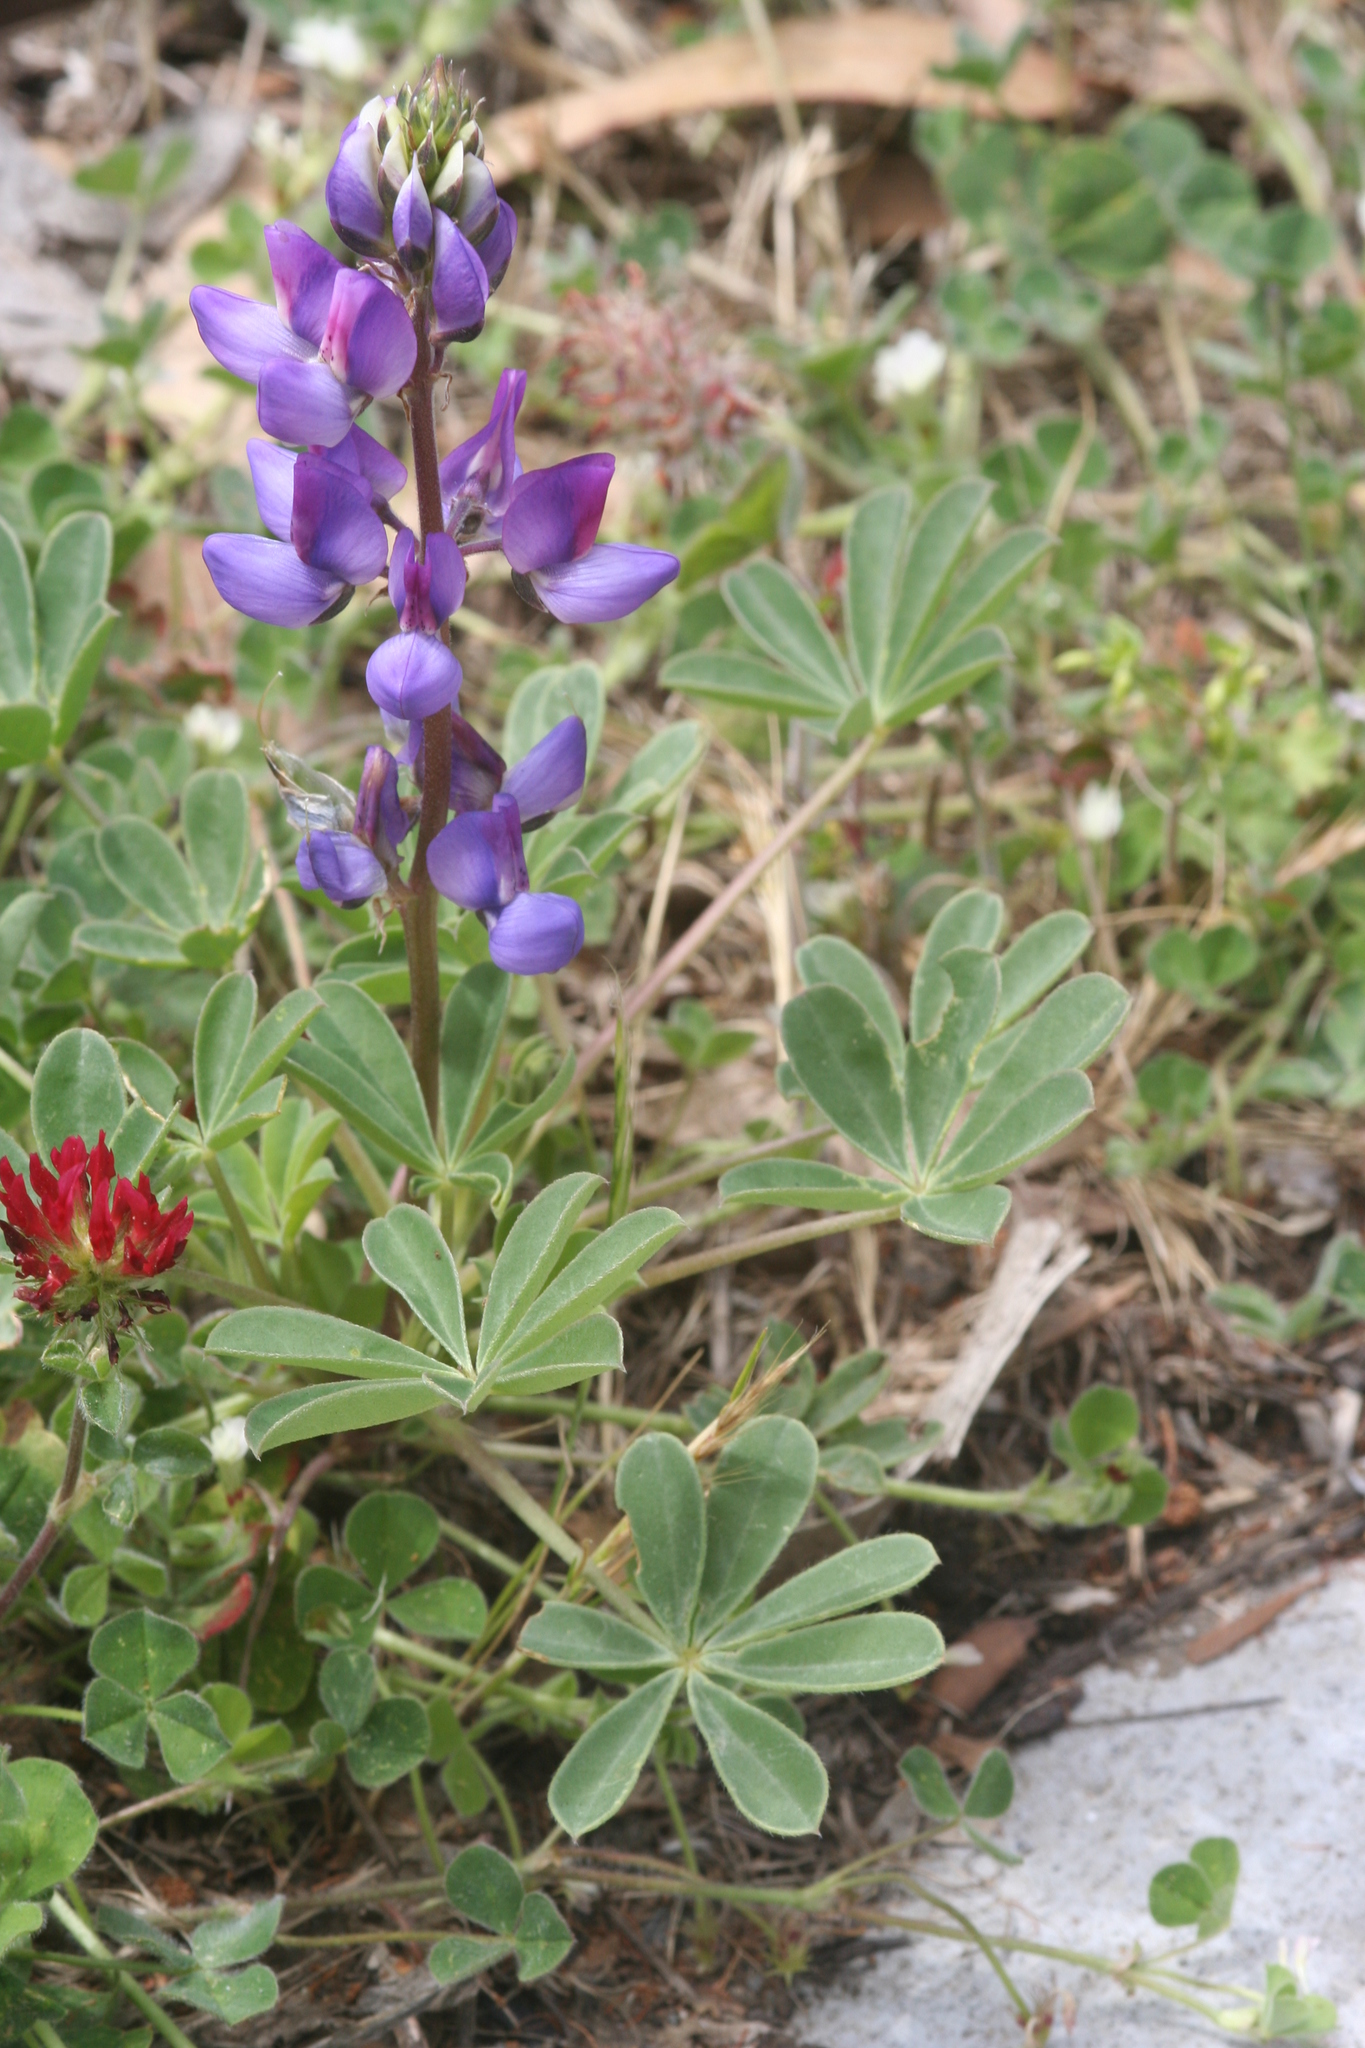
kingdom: Plantae
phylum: Tracheophyta
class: Magnoliopsida
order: Fabales
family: Fabaceae
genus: Lupinus
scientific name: Lupinus succulentus
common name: Arroyo lupine
